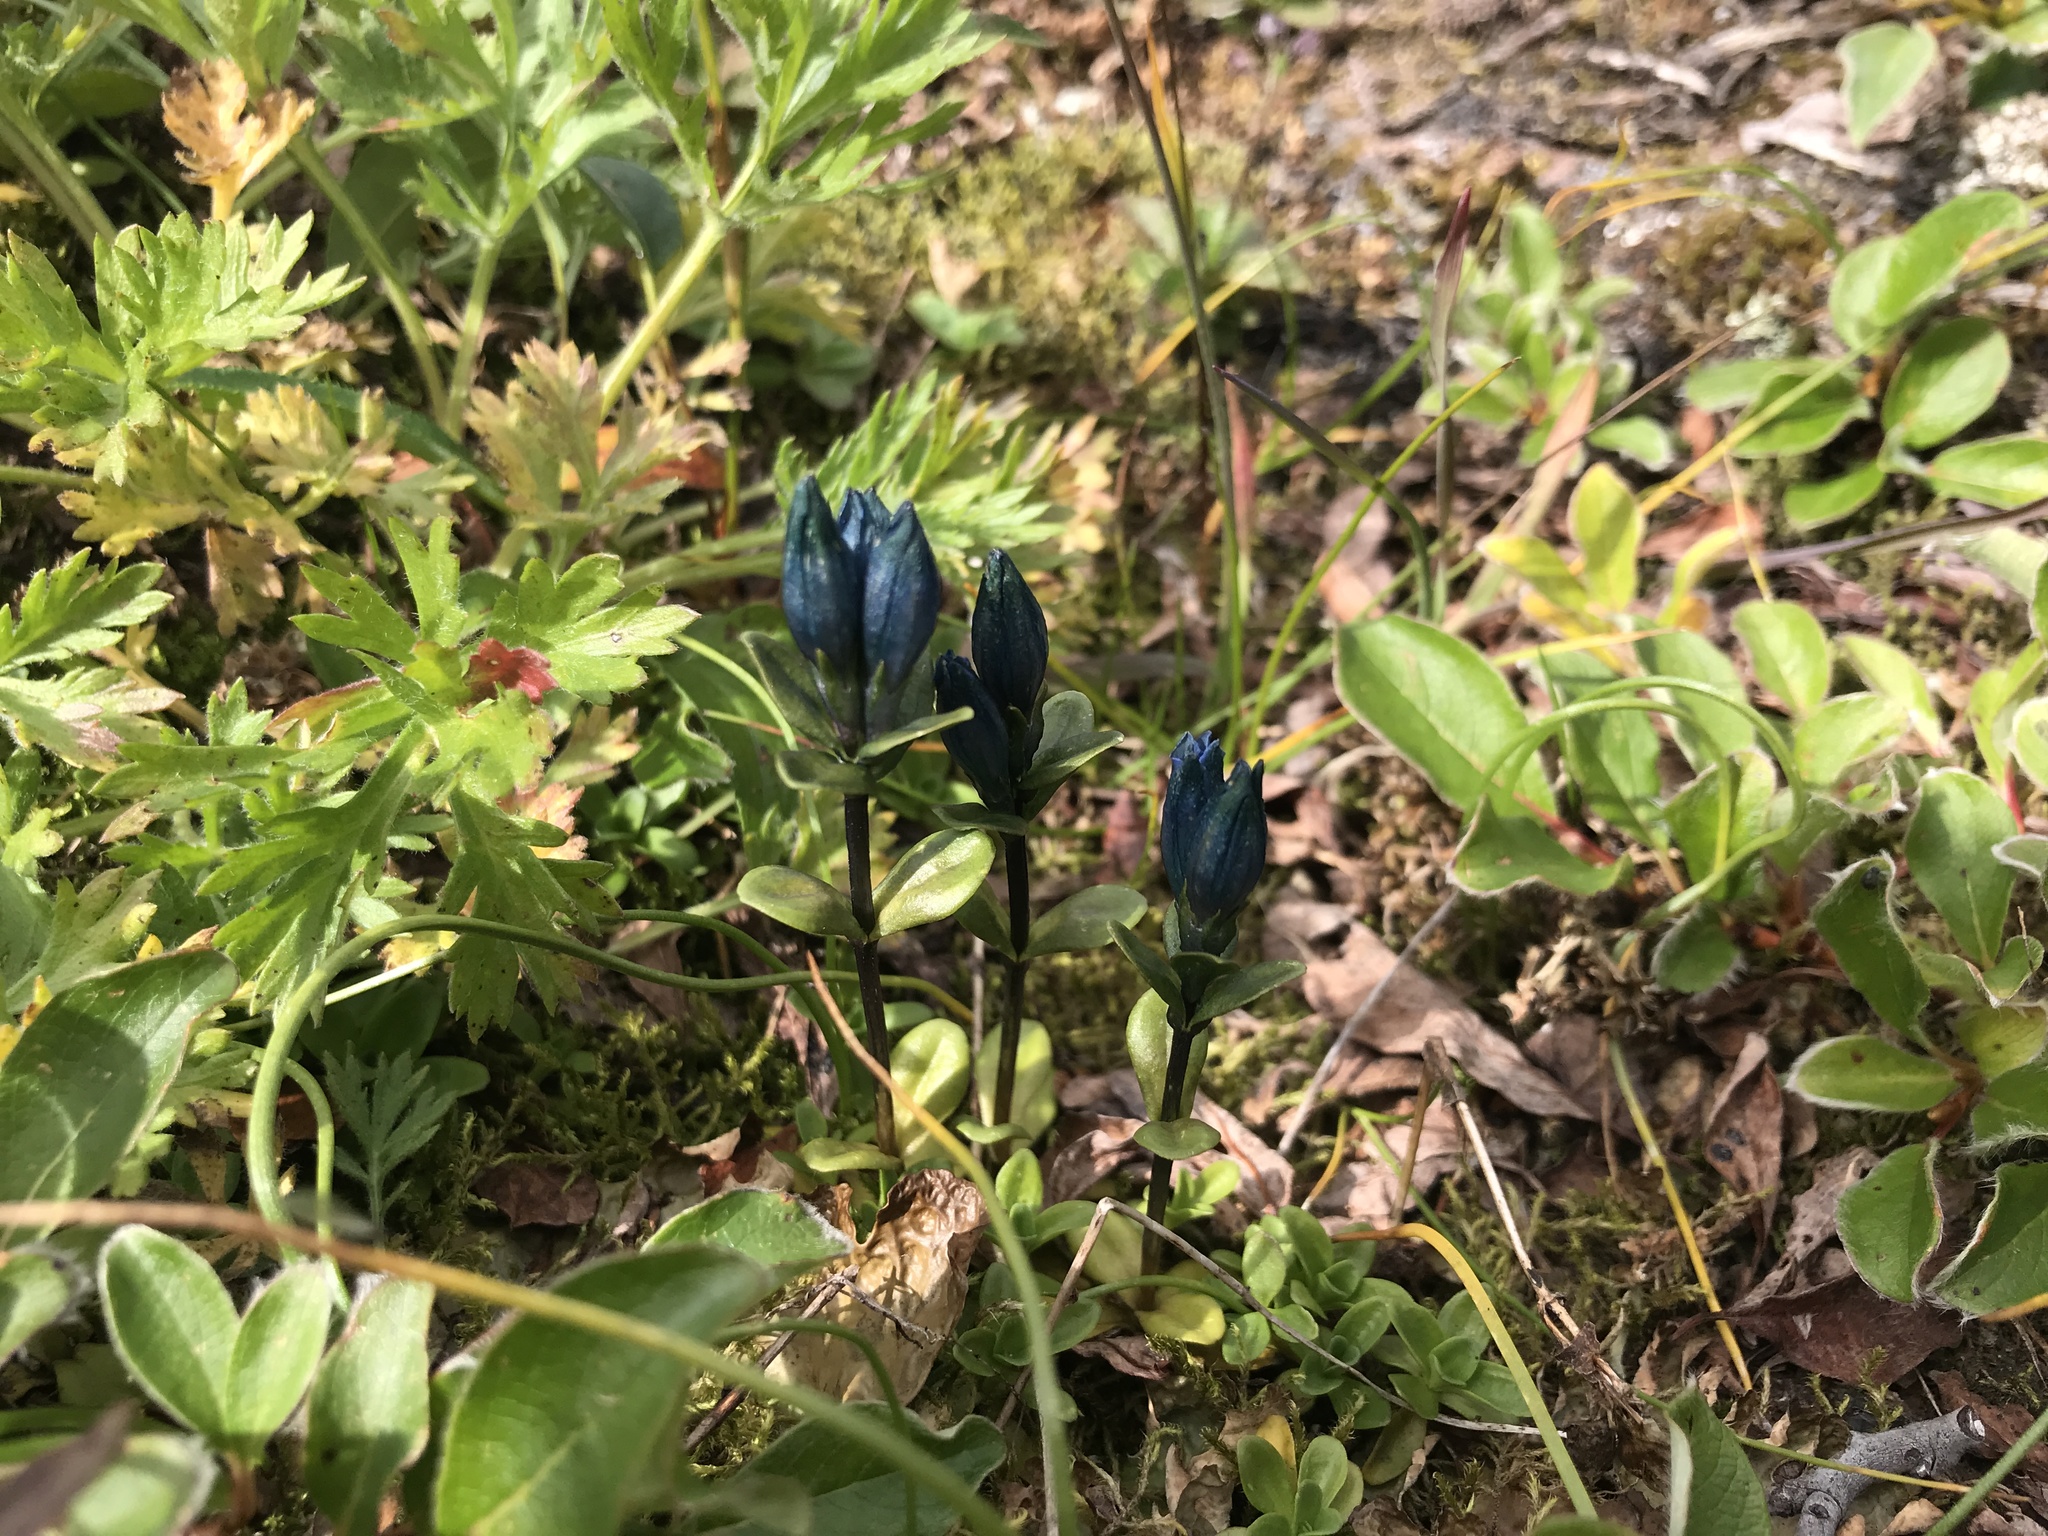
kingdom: Plantae
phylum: Tracheophyta
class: Magnoliopsida
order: Gentianales
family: Gentianaceae
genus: Gentiana
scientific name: Gentiana glauca
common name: Alpine gentian
